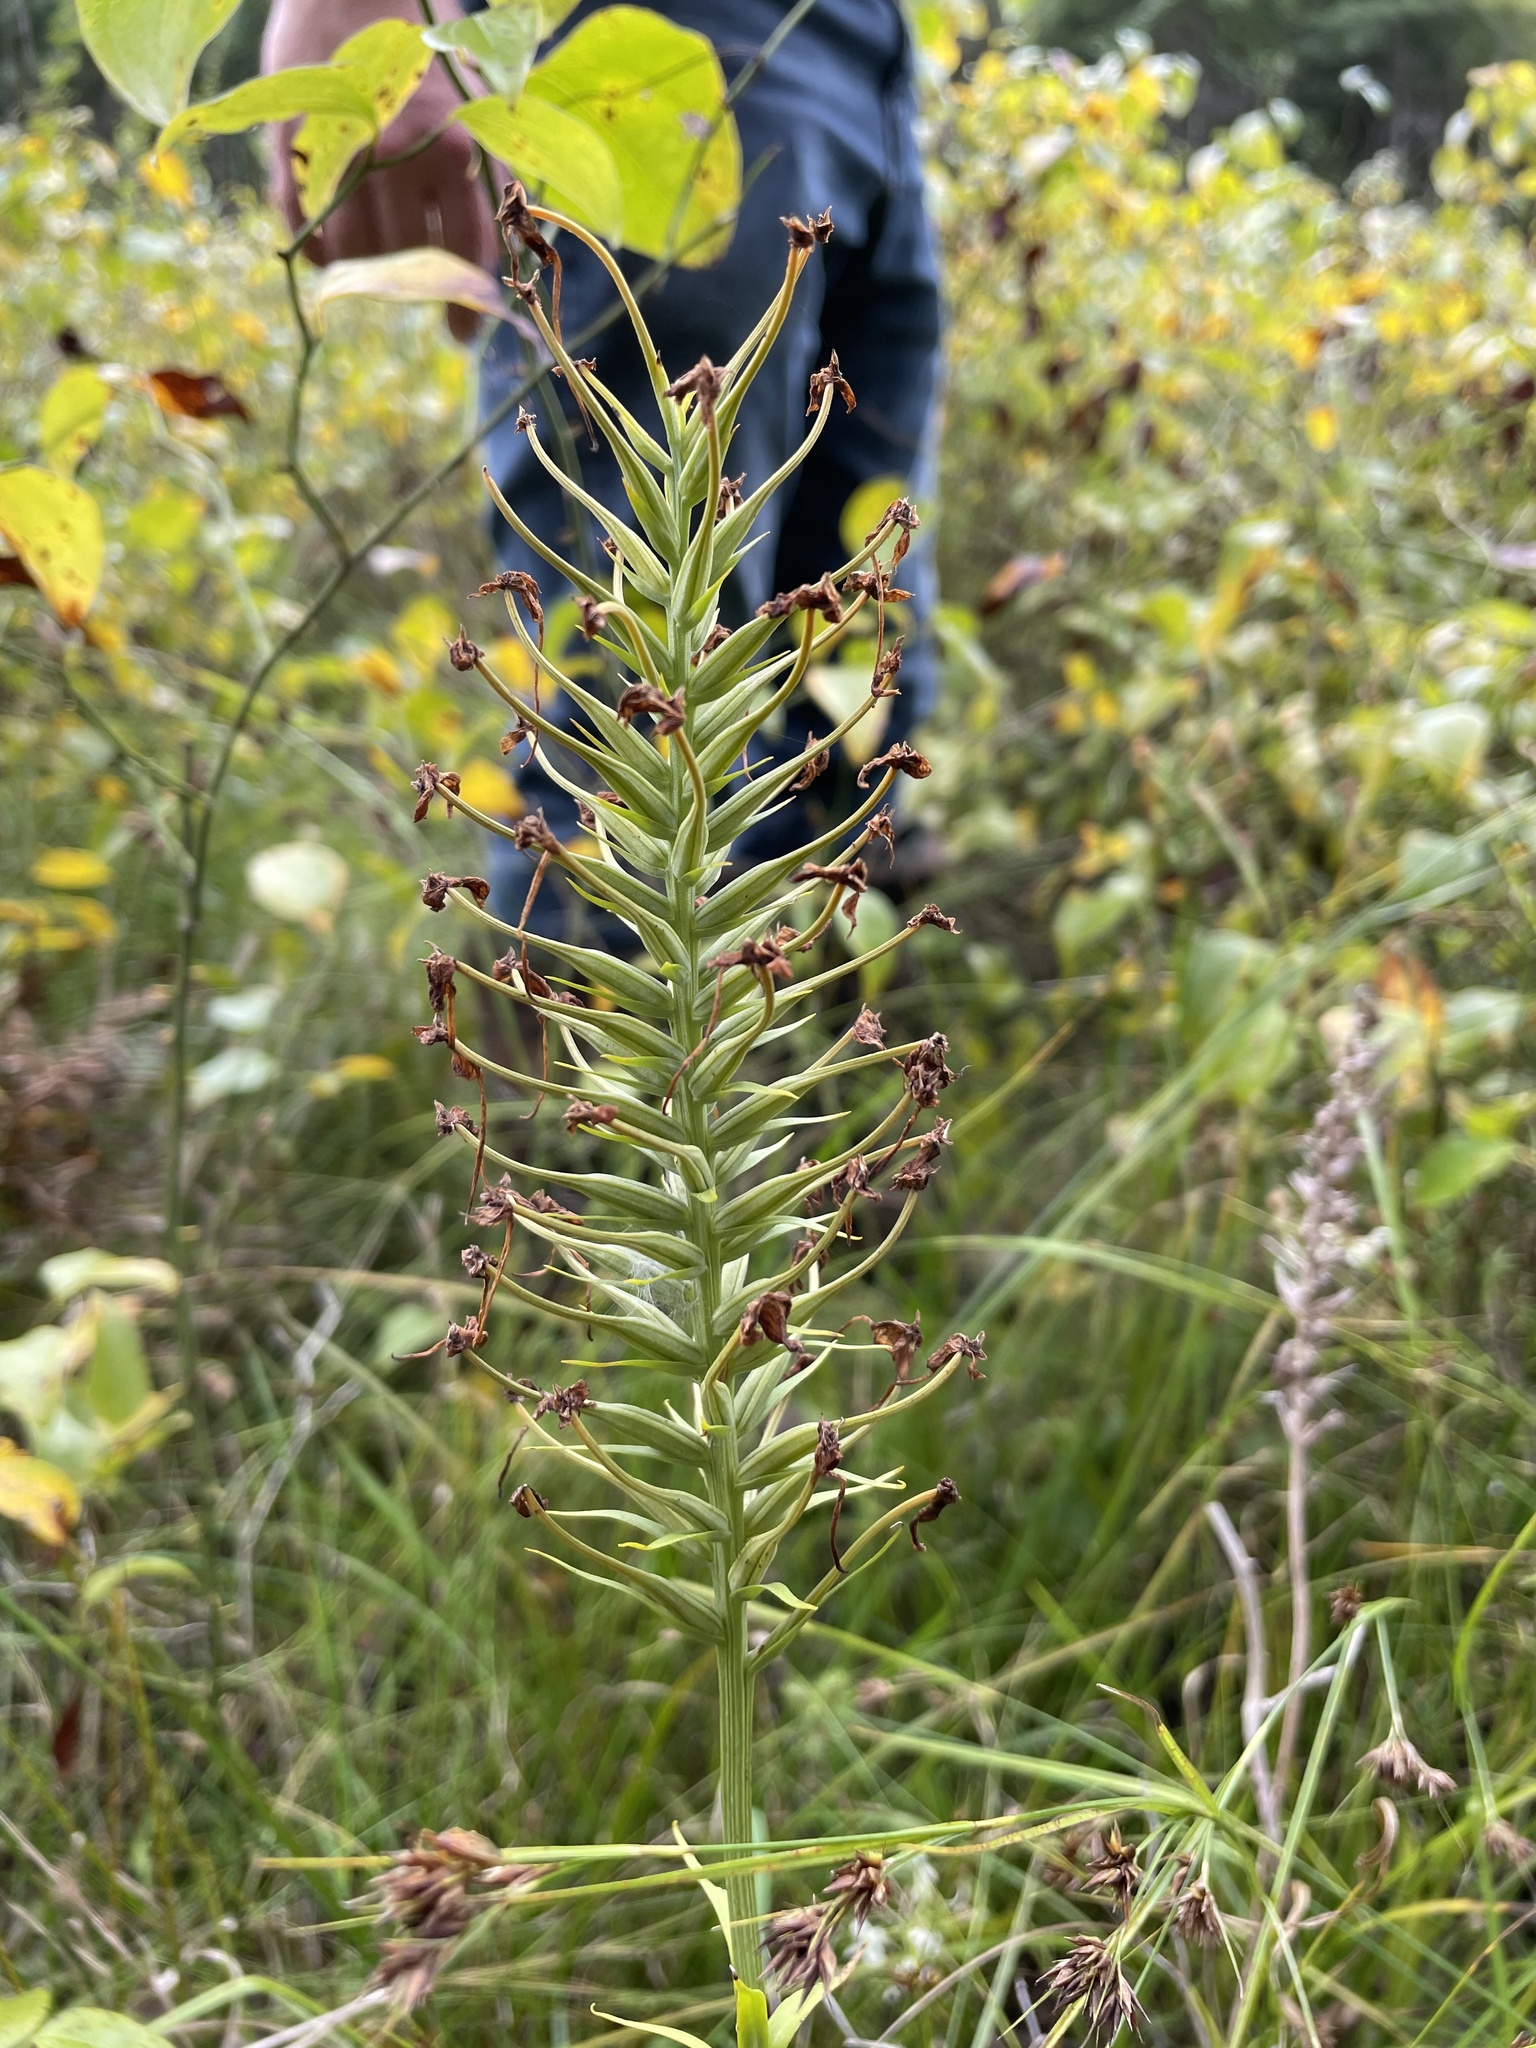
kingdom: Plantae
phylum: Tracheophyta
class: Liliopsida
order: Asparagales
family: Orchidaceae
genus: Platanthera
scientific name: Platanthera ciliaris
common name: Yellow fringed orchid
